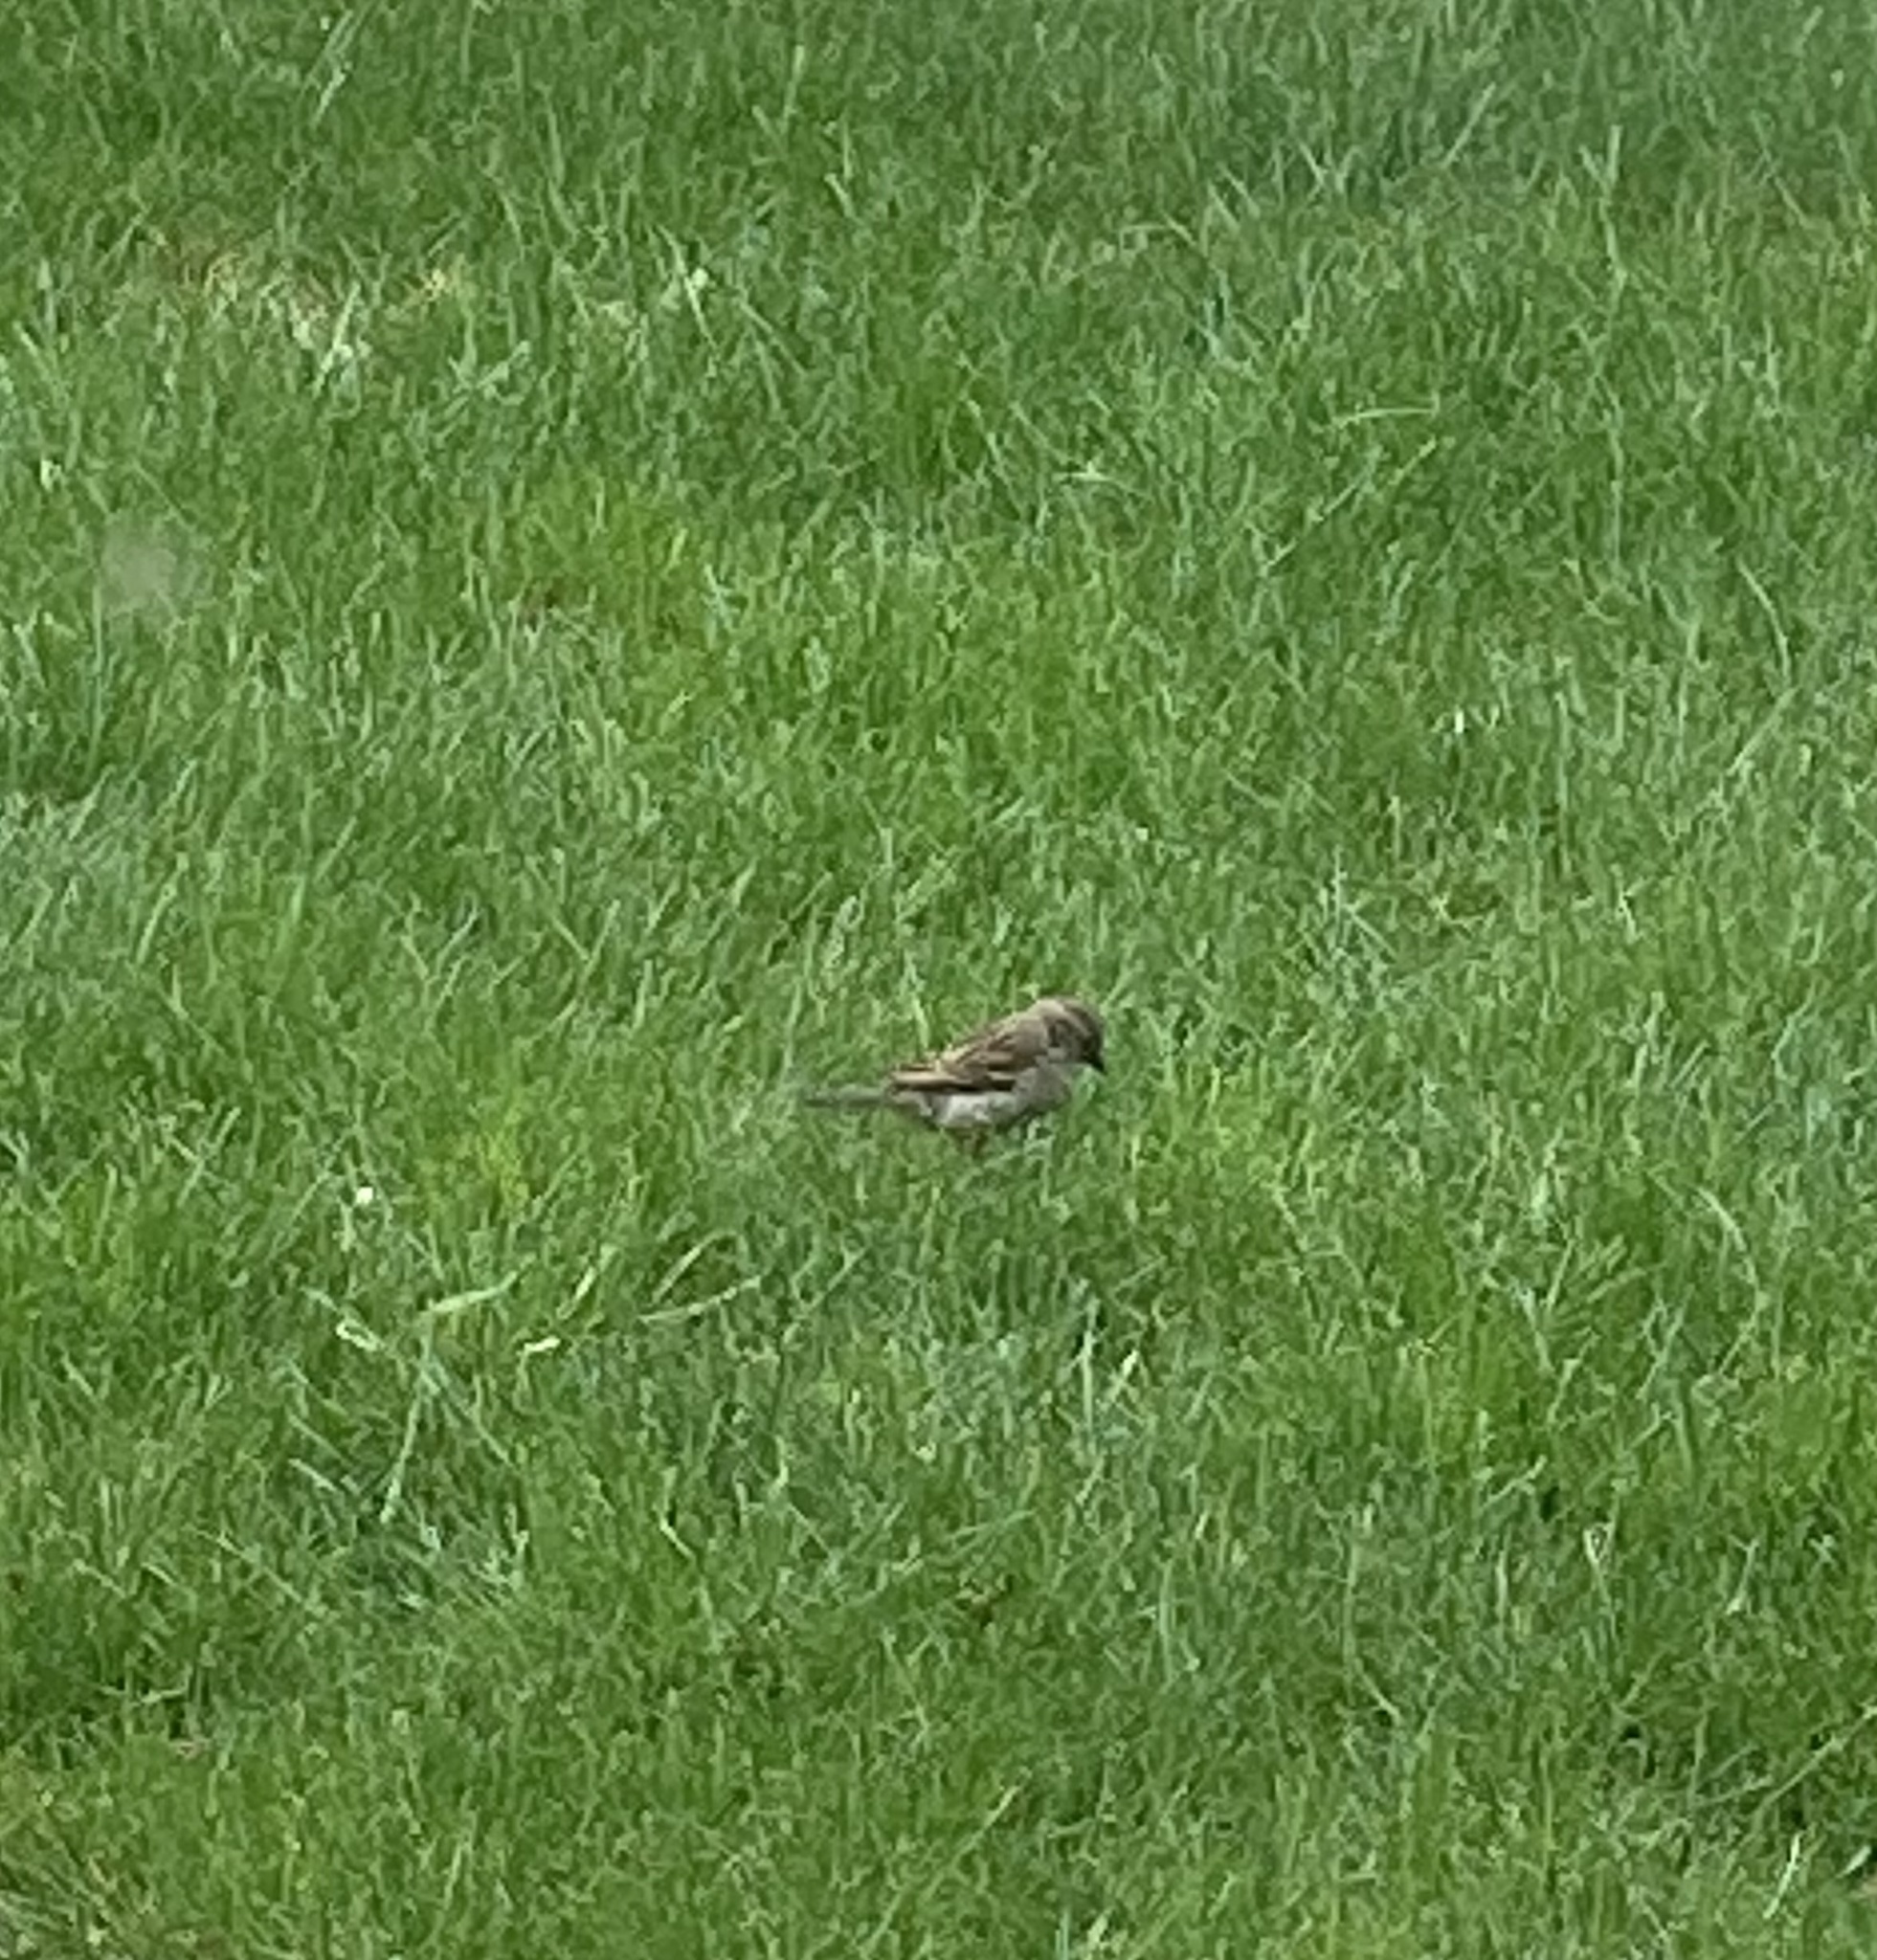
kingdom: Animalia
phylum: Chordata
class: Aves
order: Passeriformes
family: Passeridae
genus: Passer
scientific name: Passer domesticus
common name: House sparrow
